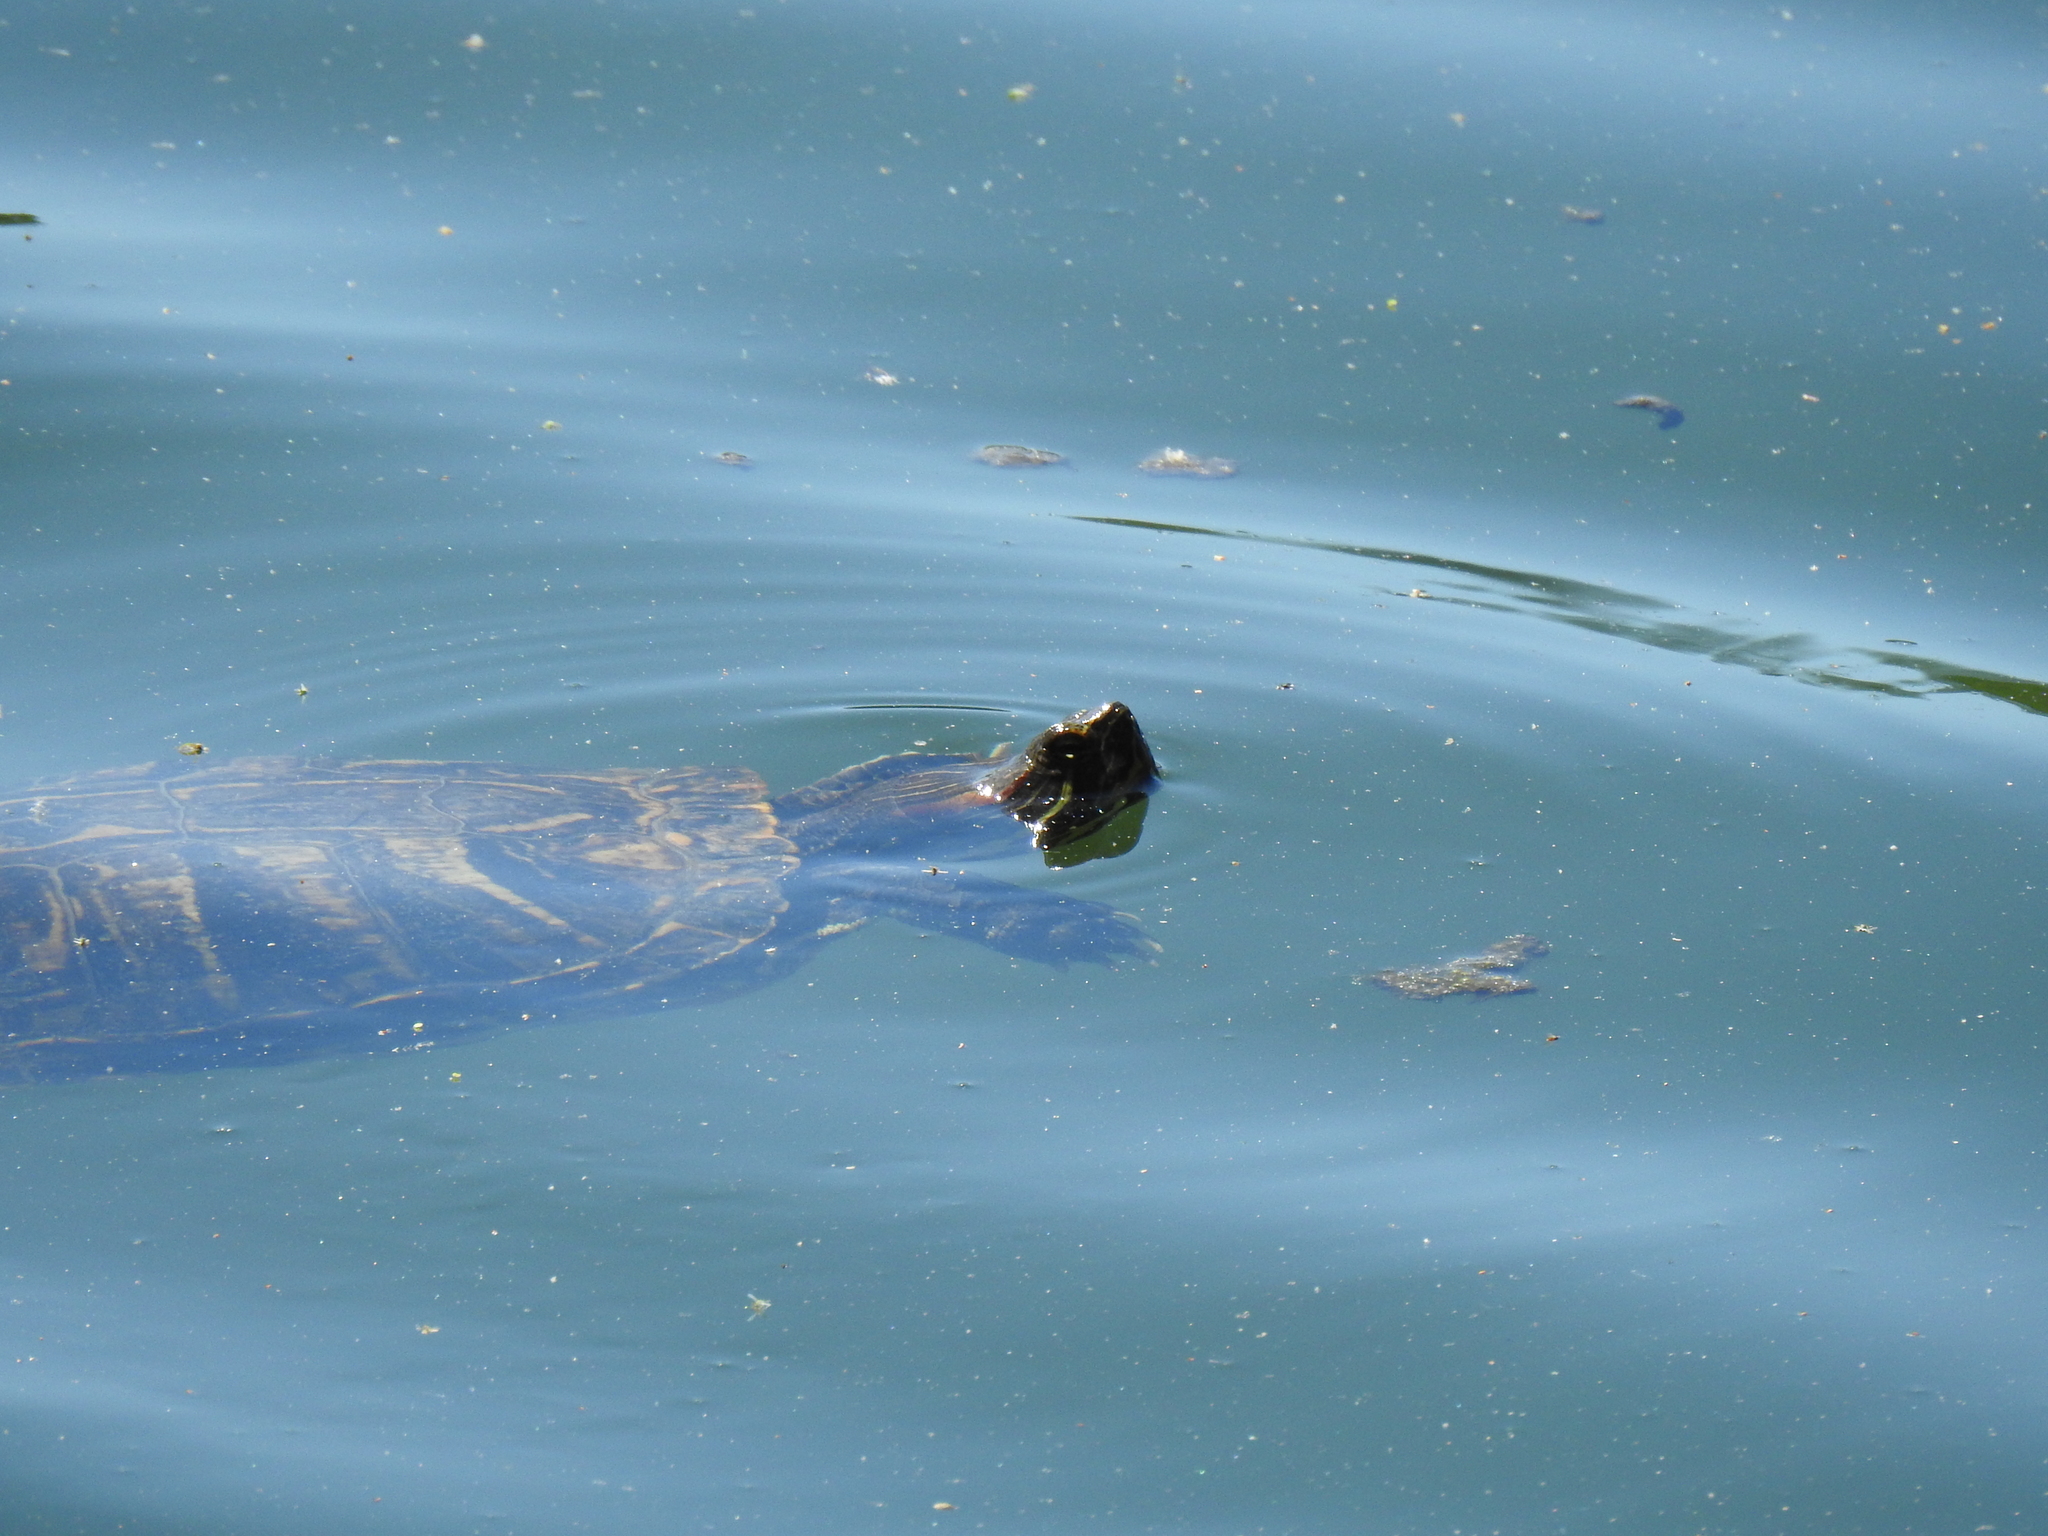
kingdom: Animalia
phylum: Chordata
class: Testudines
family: Emydidae
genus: Trachemys
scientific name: Trachemys scripta
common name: Slider
